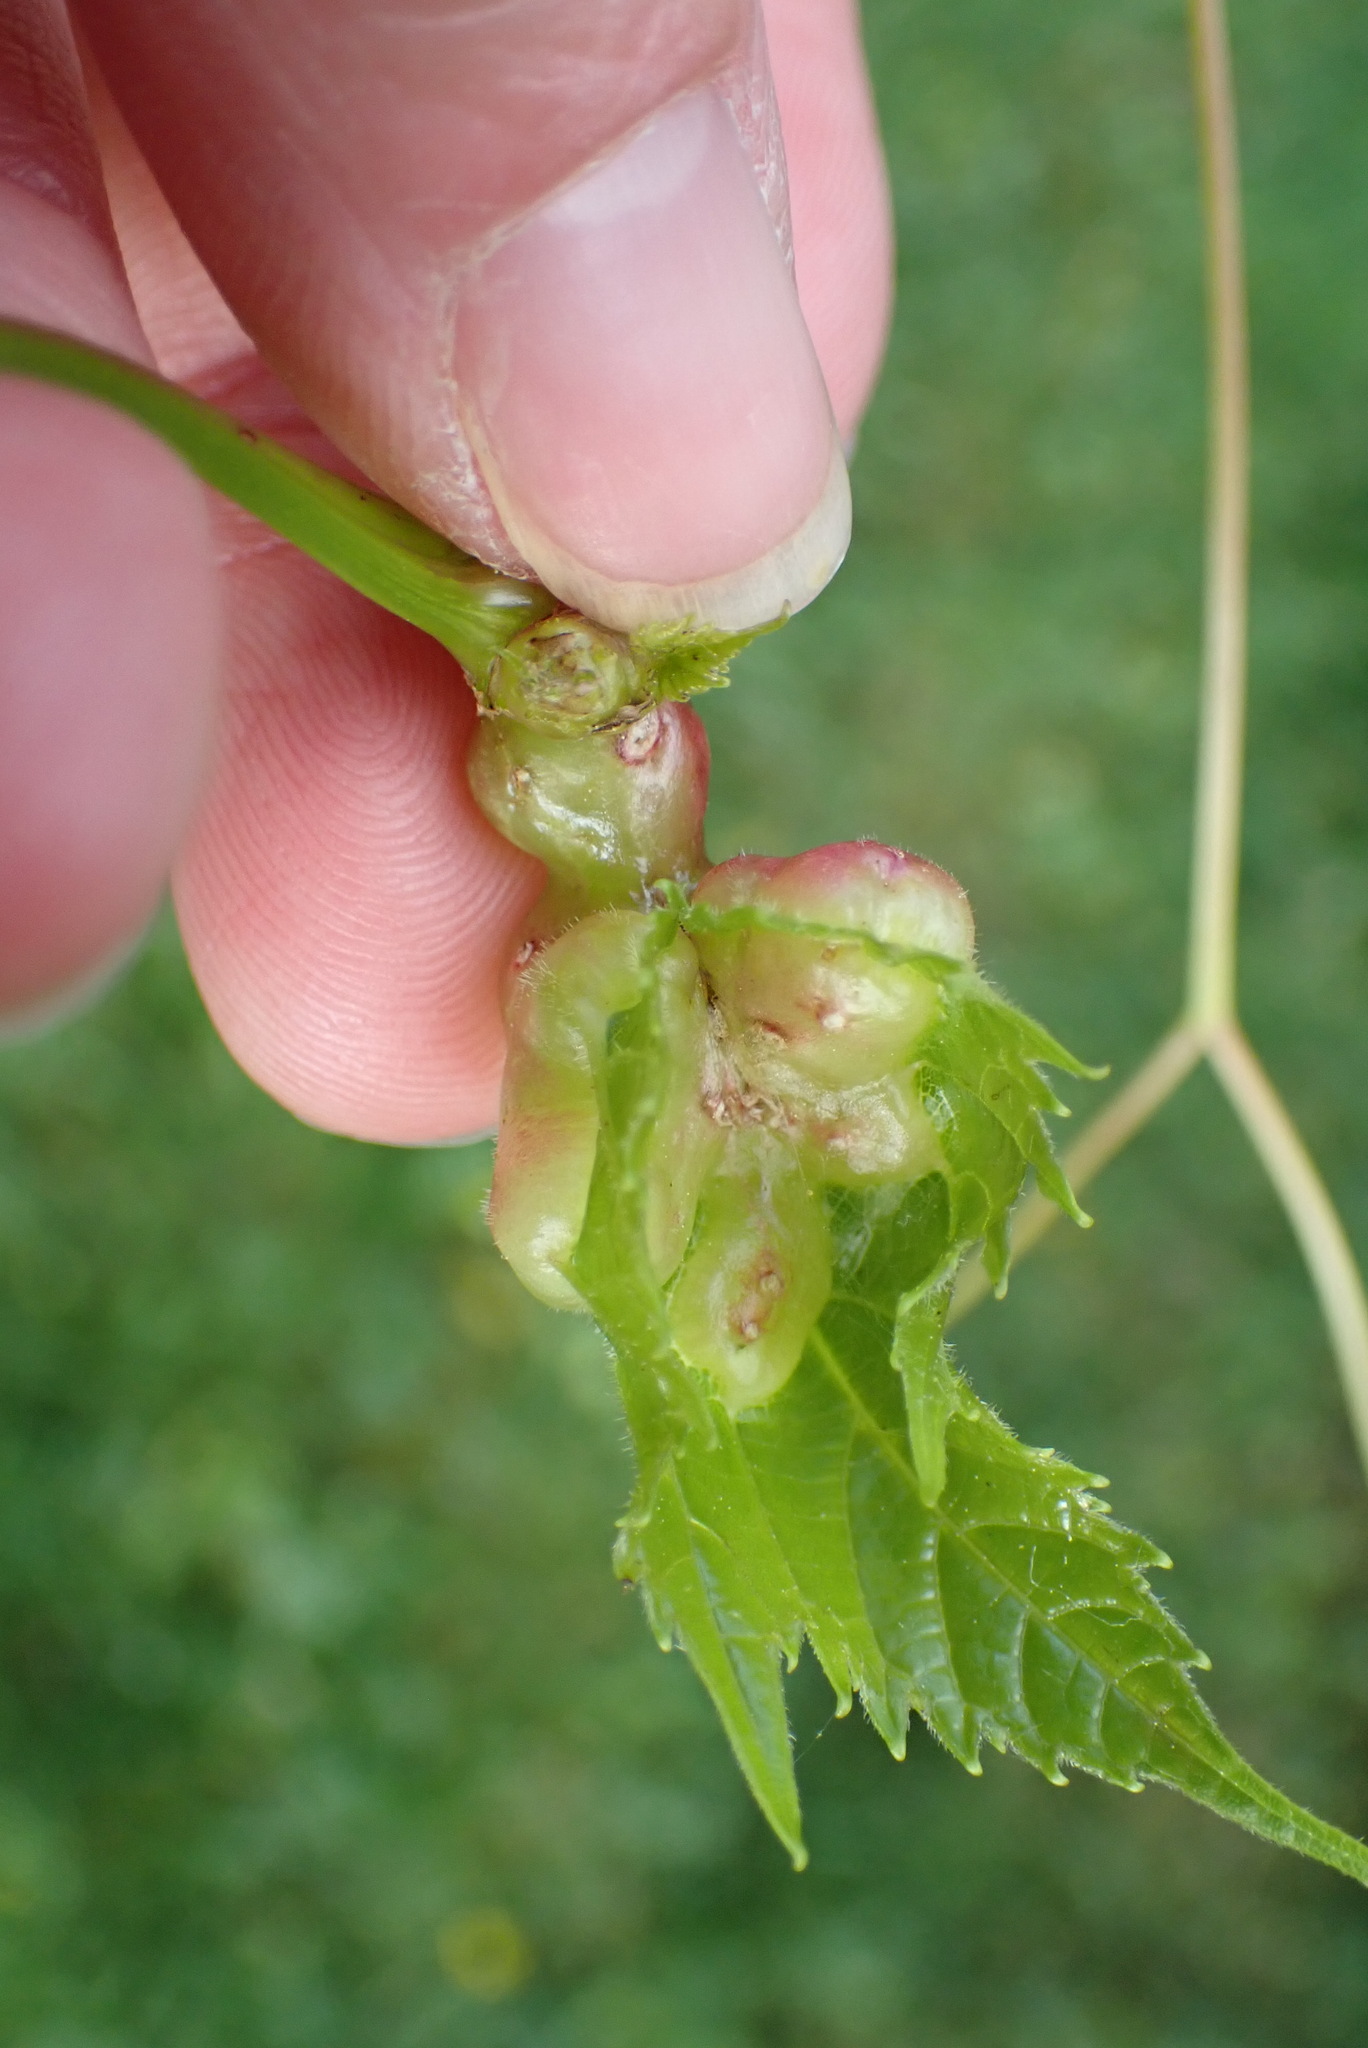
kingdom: Animalia
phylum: Arthropoda
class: Insecta
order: Diptera
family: Cecidomyiidae
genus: Vitisiella
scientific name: Vitisiella brevicauda
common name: Grape tumid gallmaker midge
